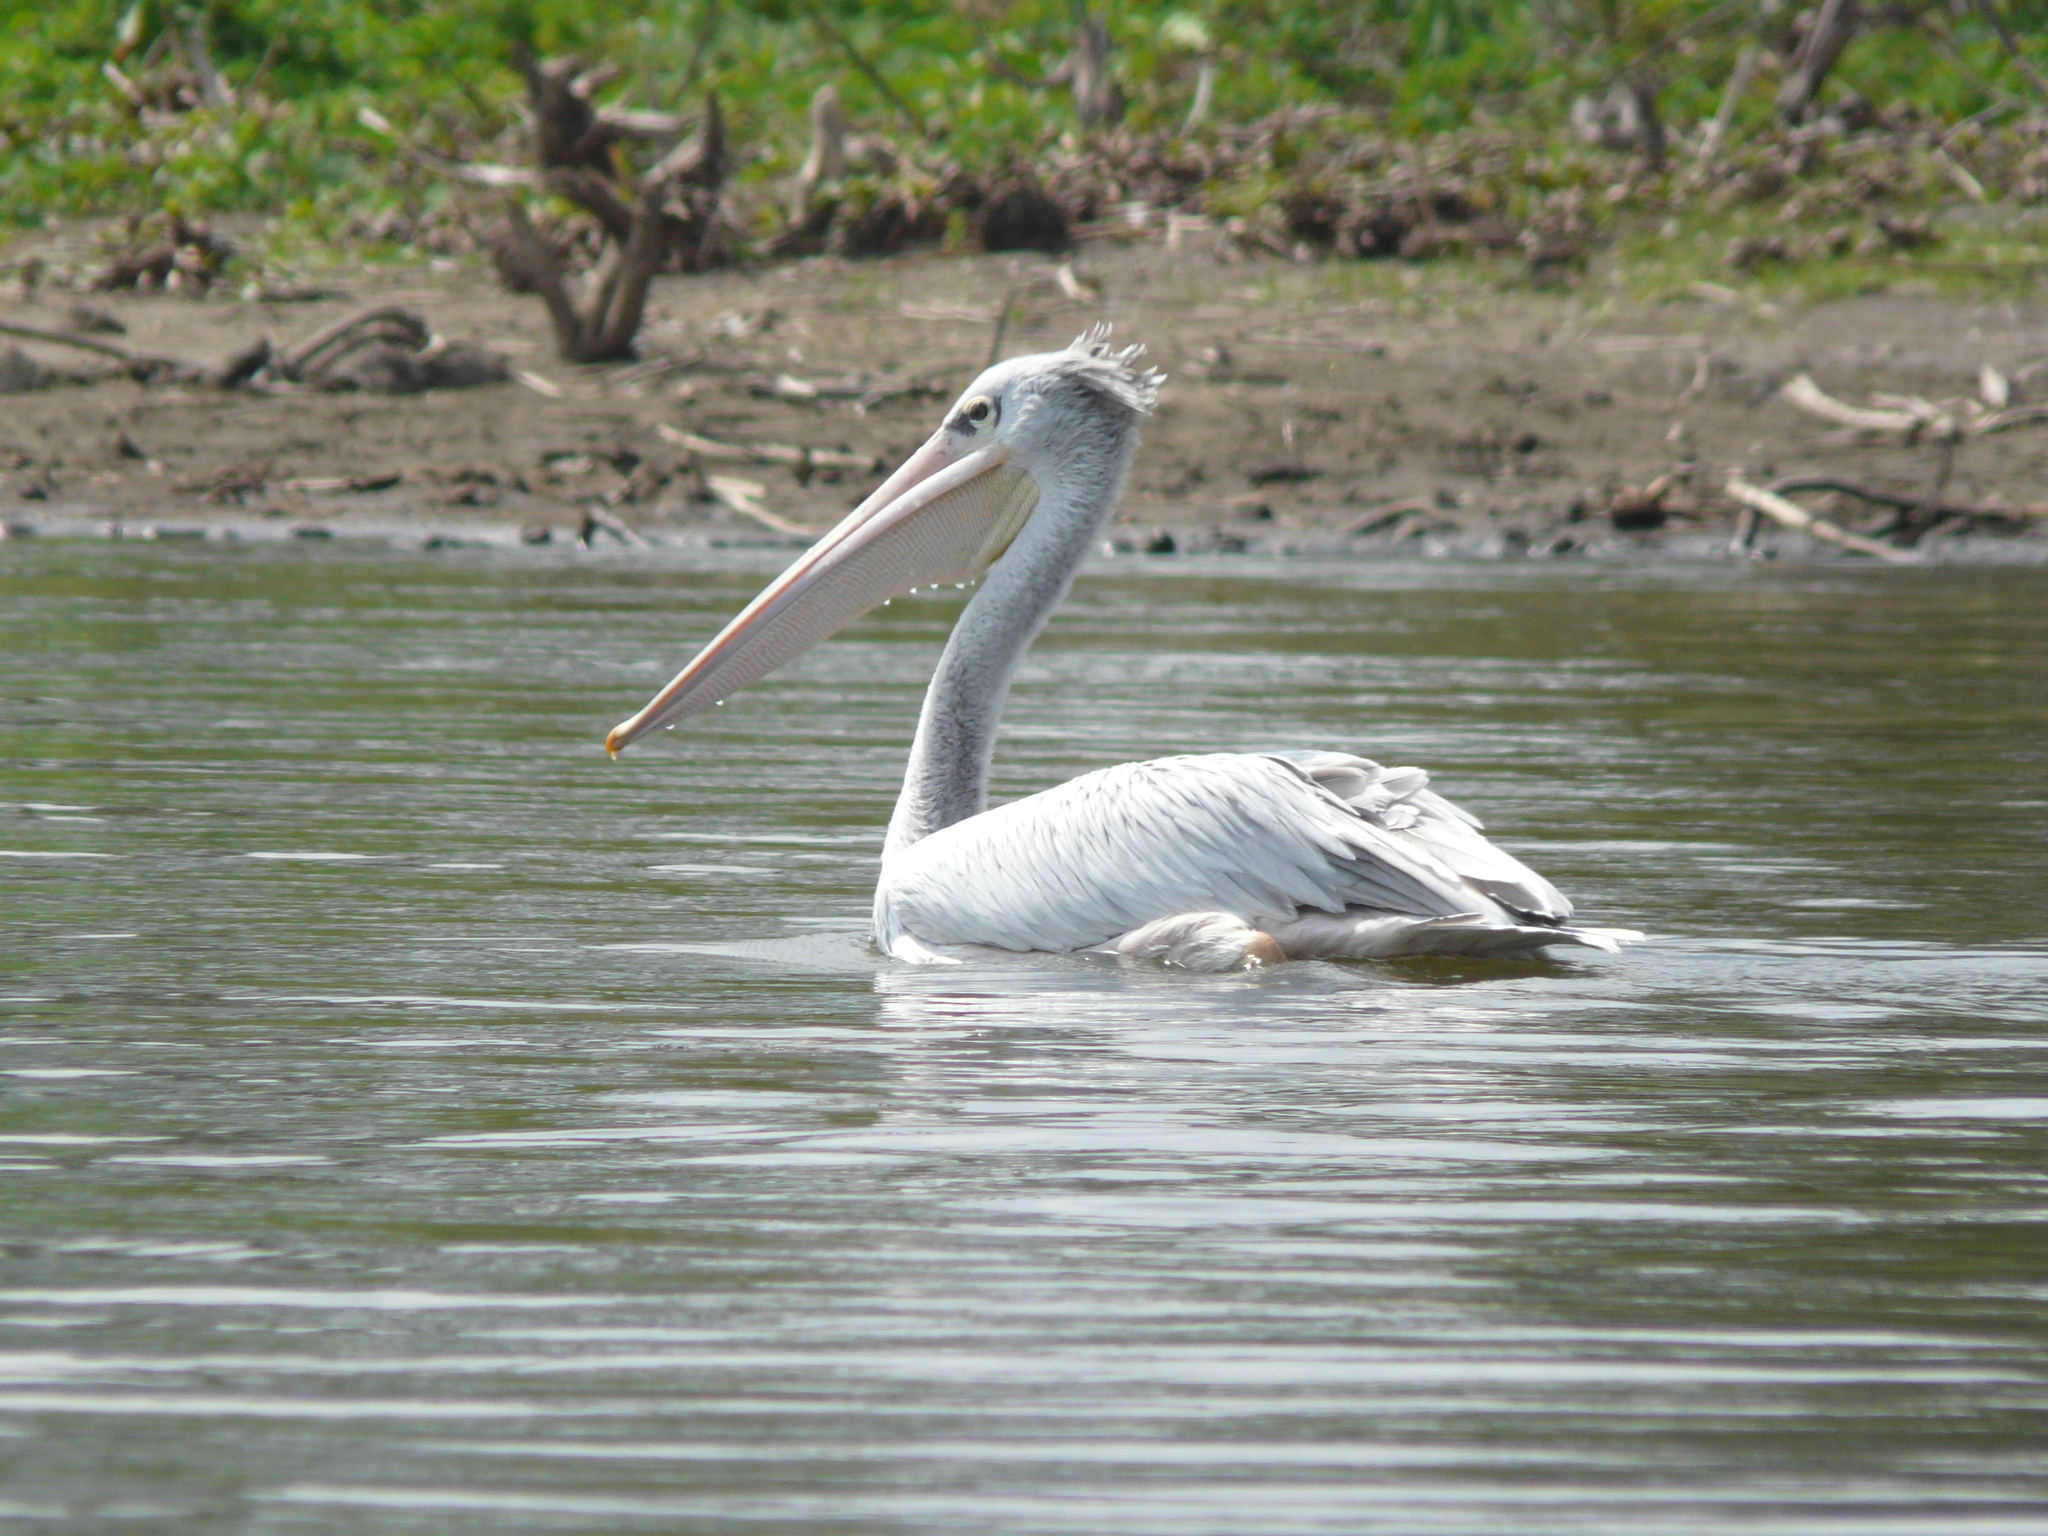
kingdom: Animalia
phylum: Chordata
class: Aves
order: Pelecaniformes
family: Pelecanidae
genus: Pelecanus
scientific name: Pelecanus rufescens
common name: Pink-backed pelican
